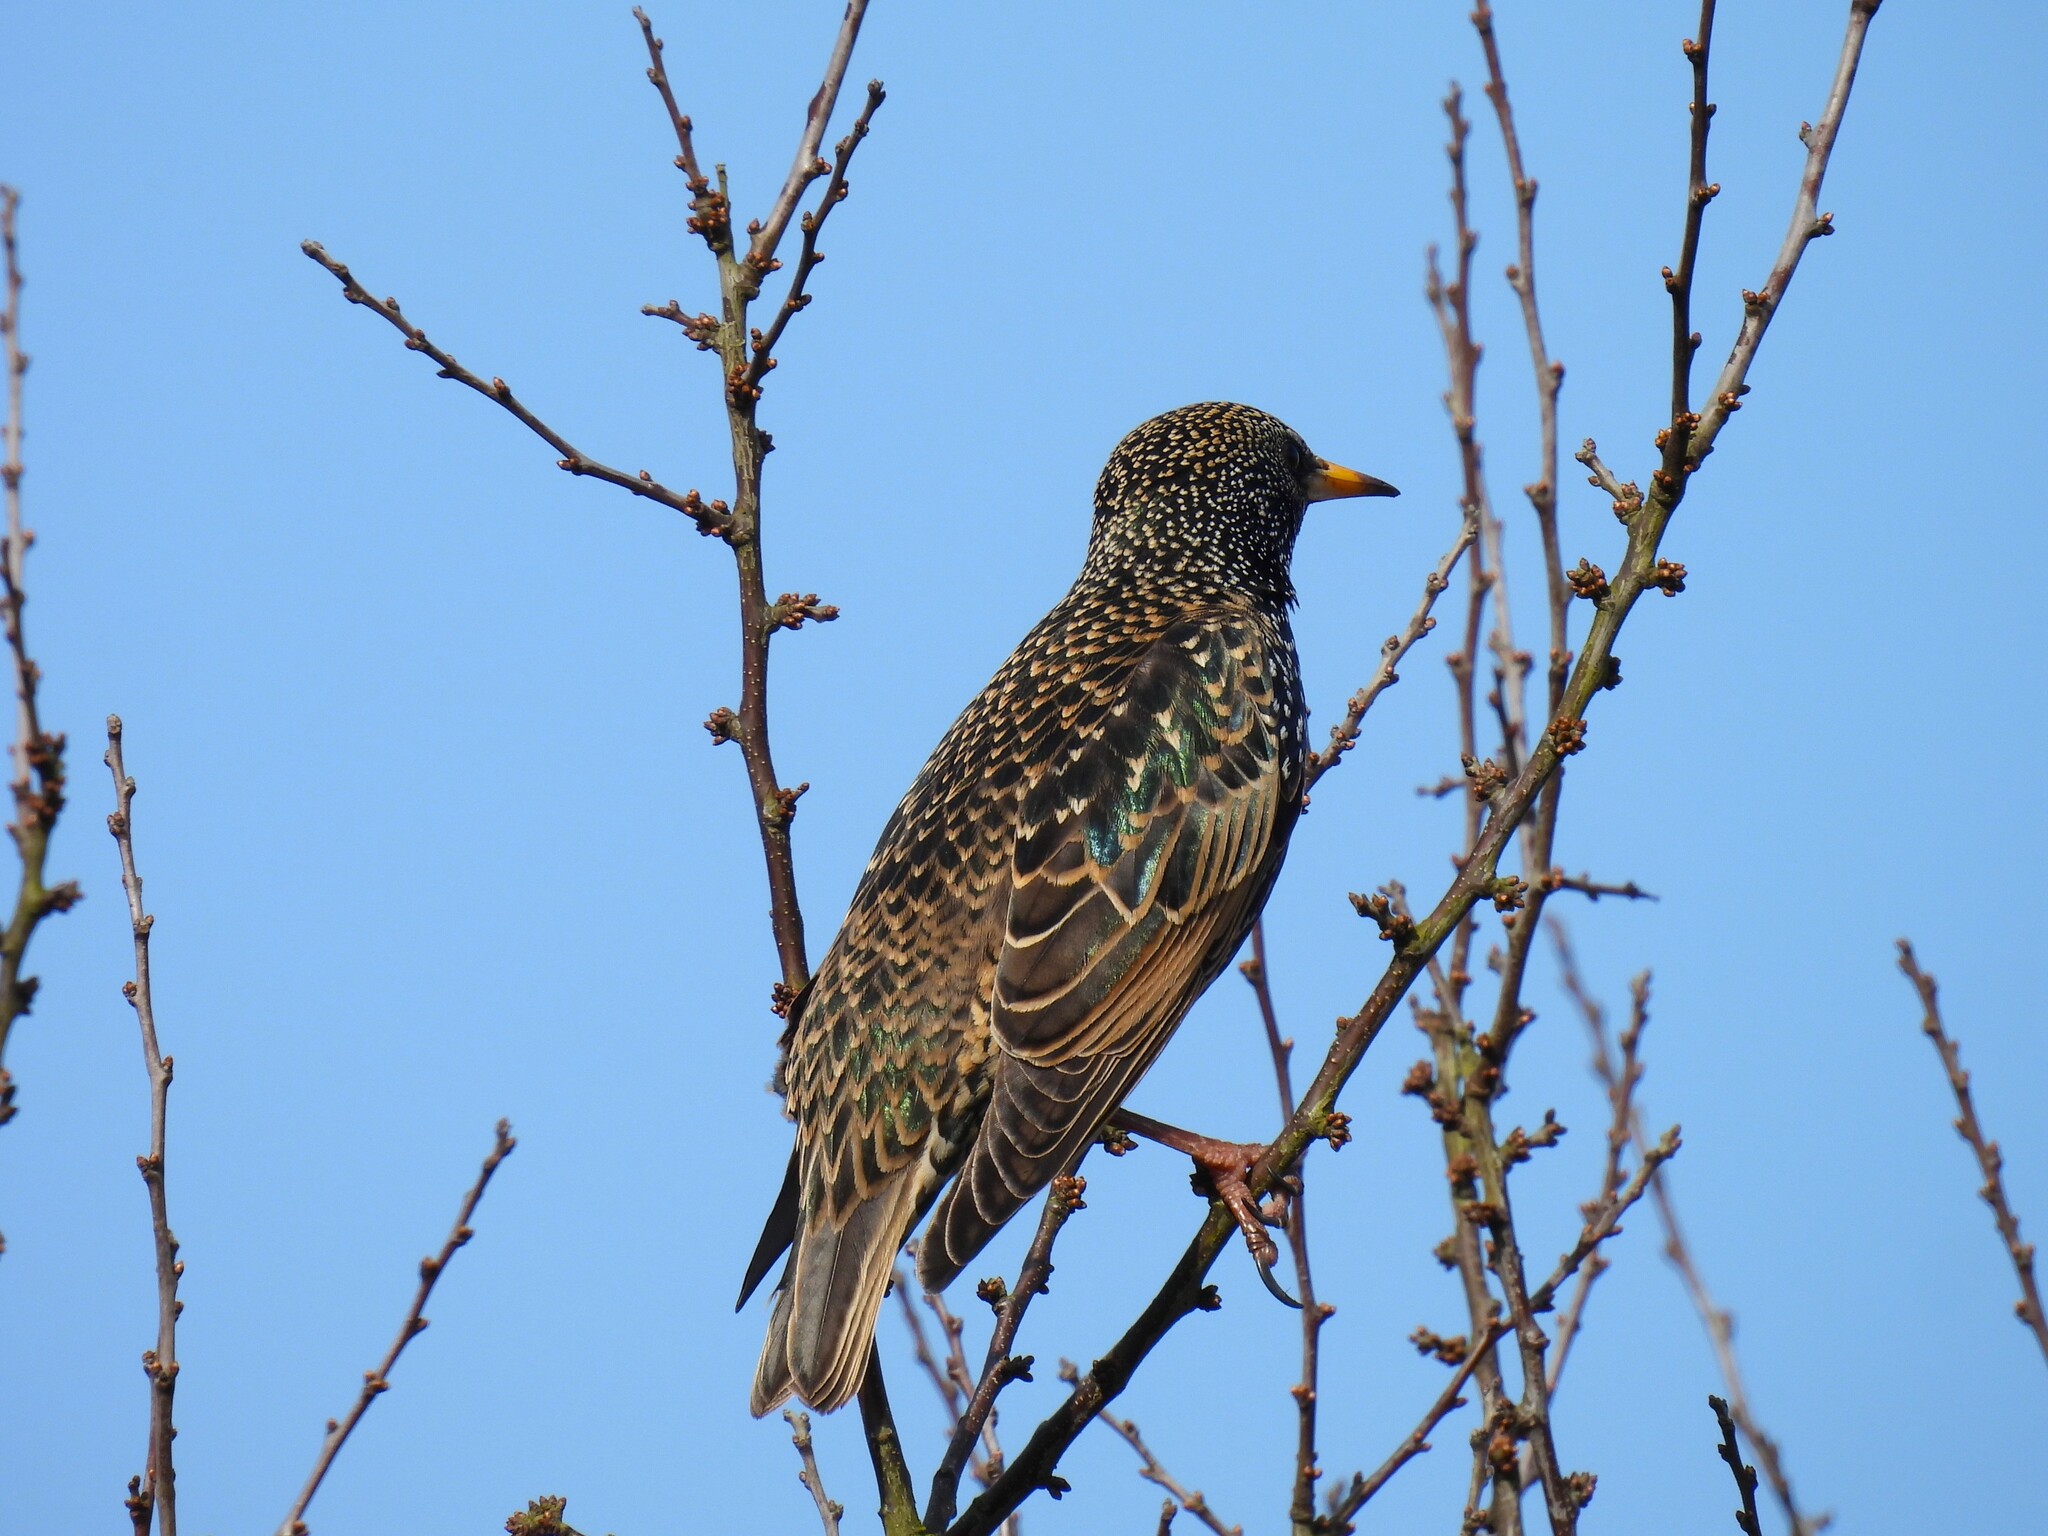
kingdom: Animalia
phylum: Chordata
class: Aves
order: Passeriformes
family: Sturnidae
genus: Sturnus
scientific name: Sturnus vulgaris
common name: Common starling
